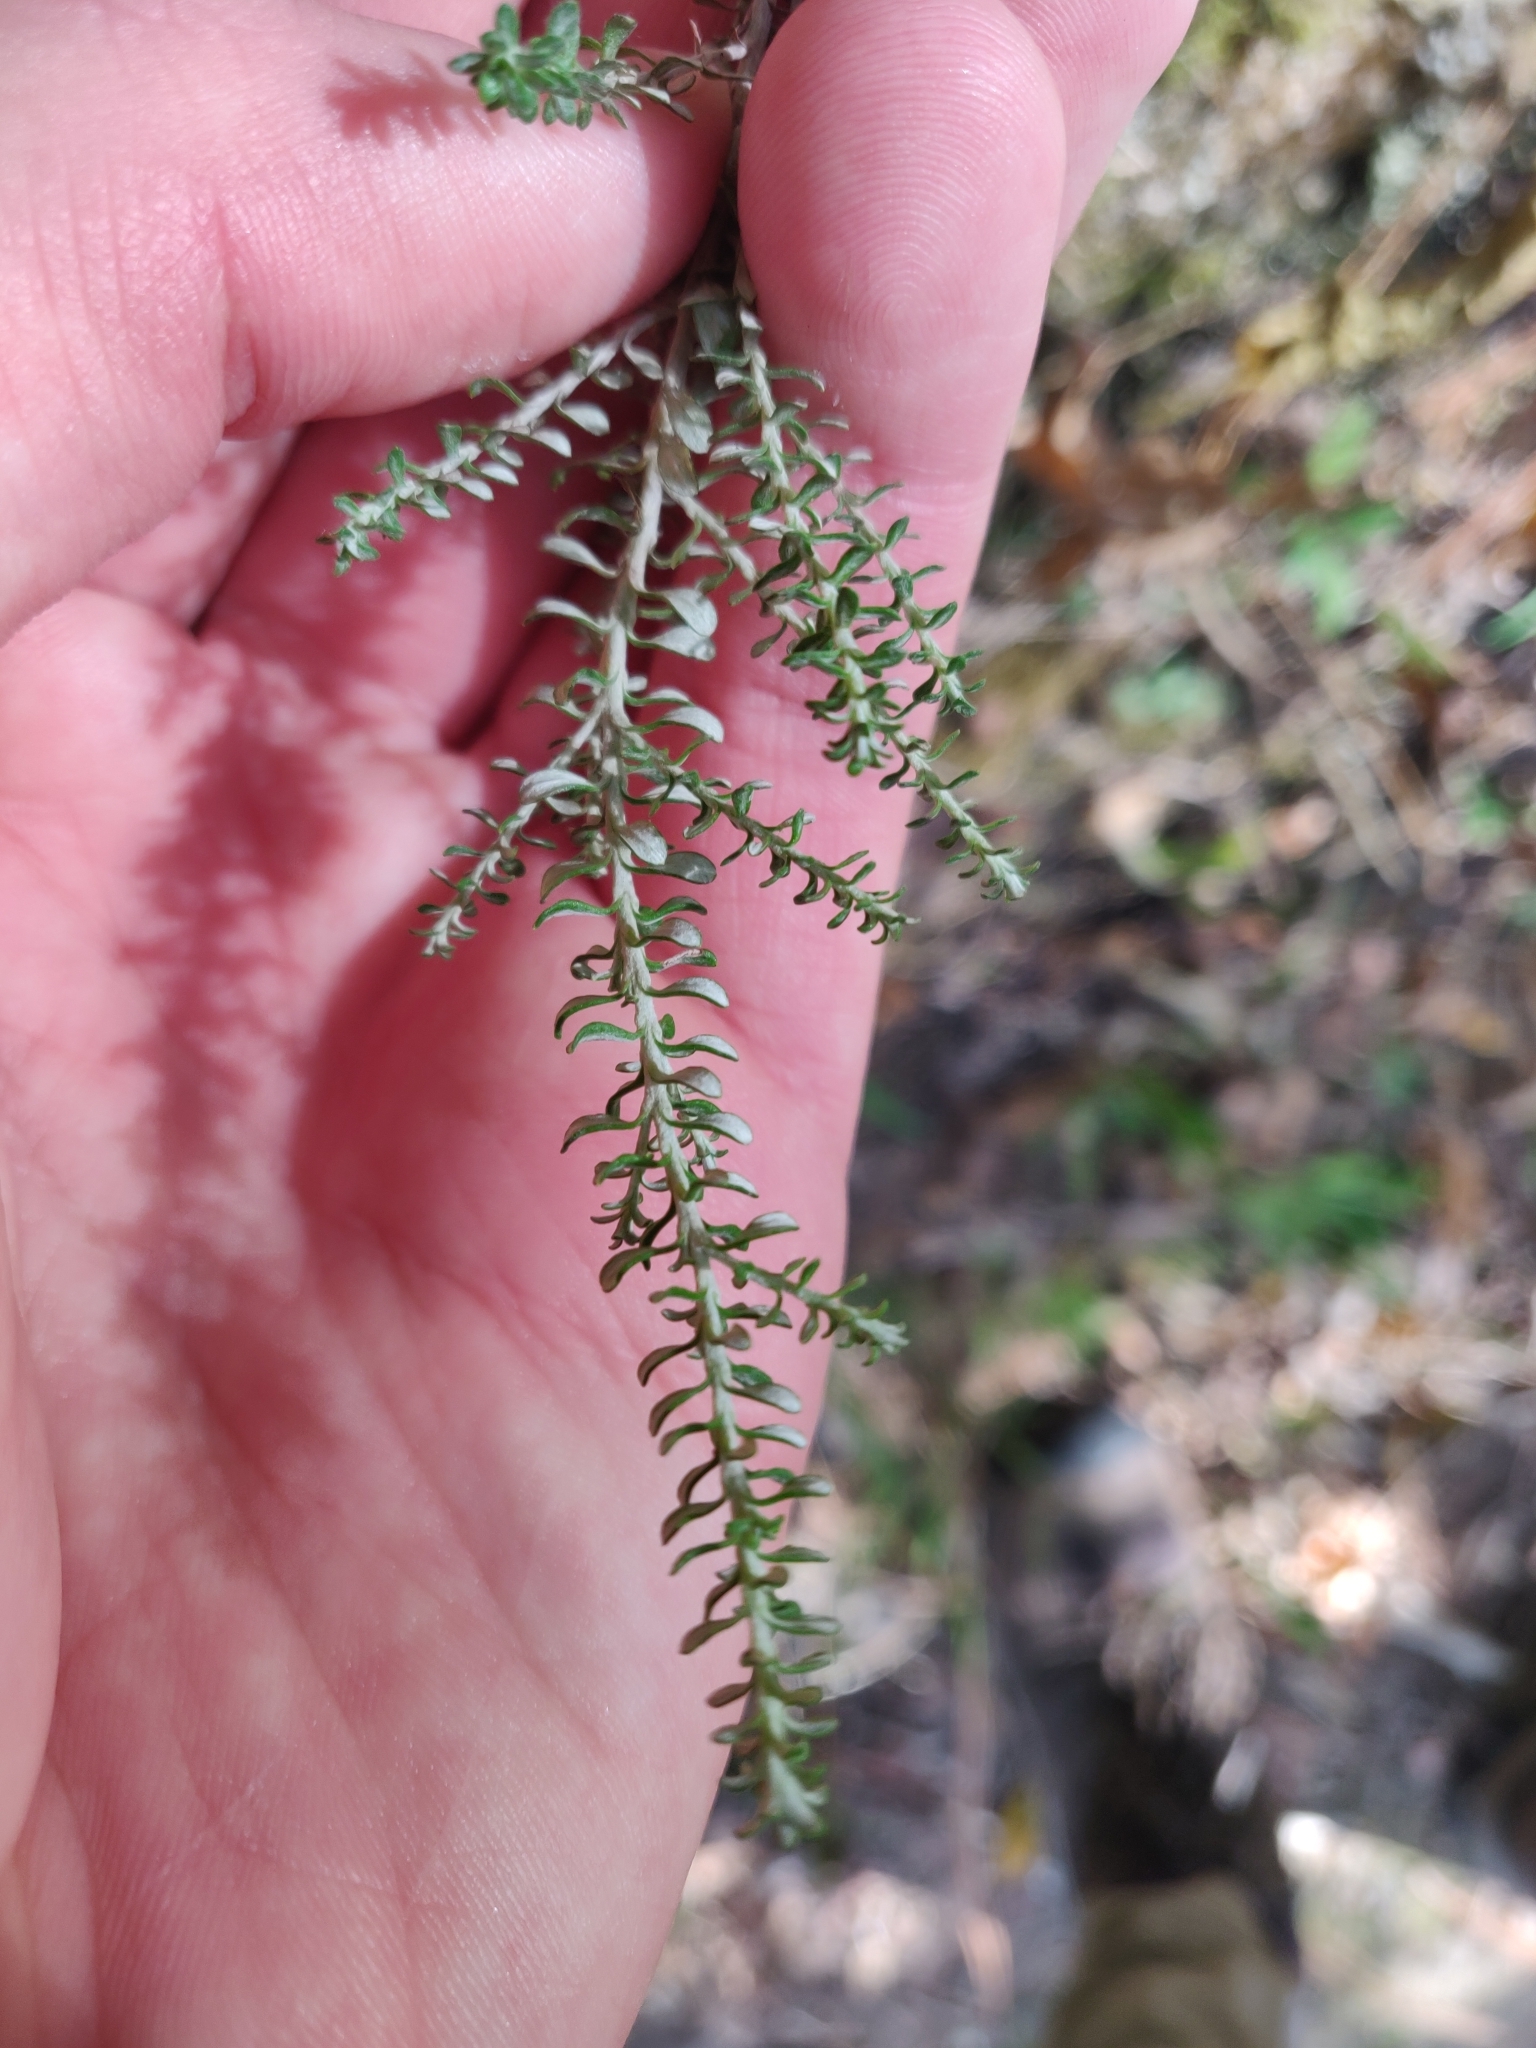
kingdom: Plantae
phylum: Tracheophyta
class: Magnoliopsida
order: Asterales
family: Asteraceae
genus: Ozothamnus
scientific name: Ozothamnus leptophyllus
